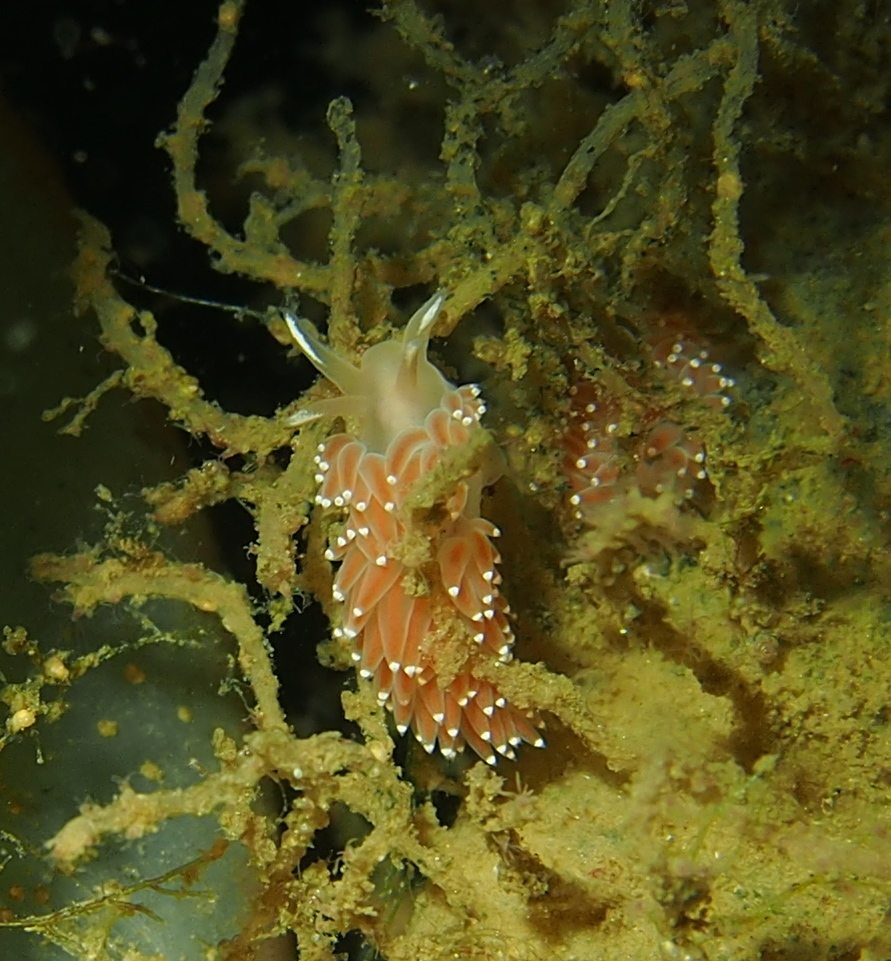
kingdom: Animalia
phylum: Mollusca
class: Gastropoda
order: Nudibranchia
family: Coryphellidae
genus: Coryphella
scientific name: Coryphella verrucosa
